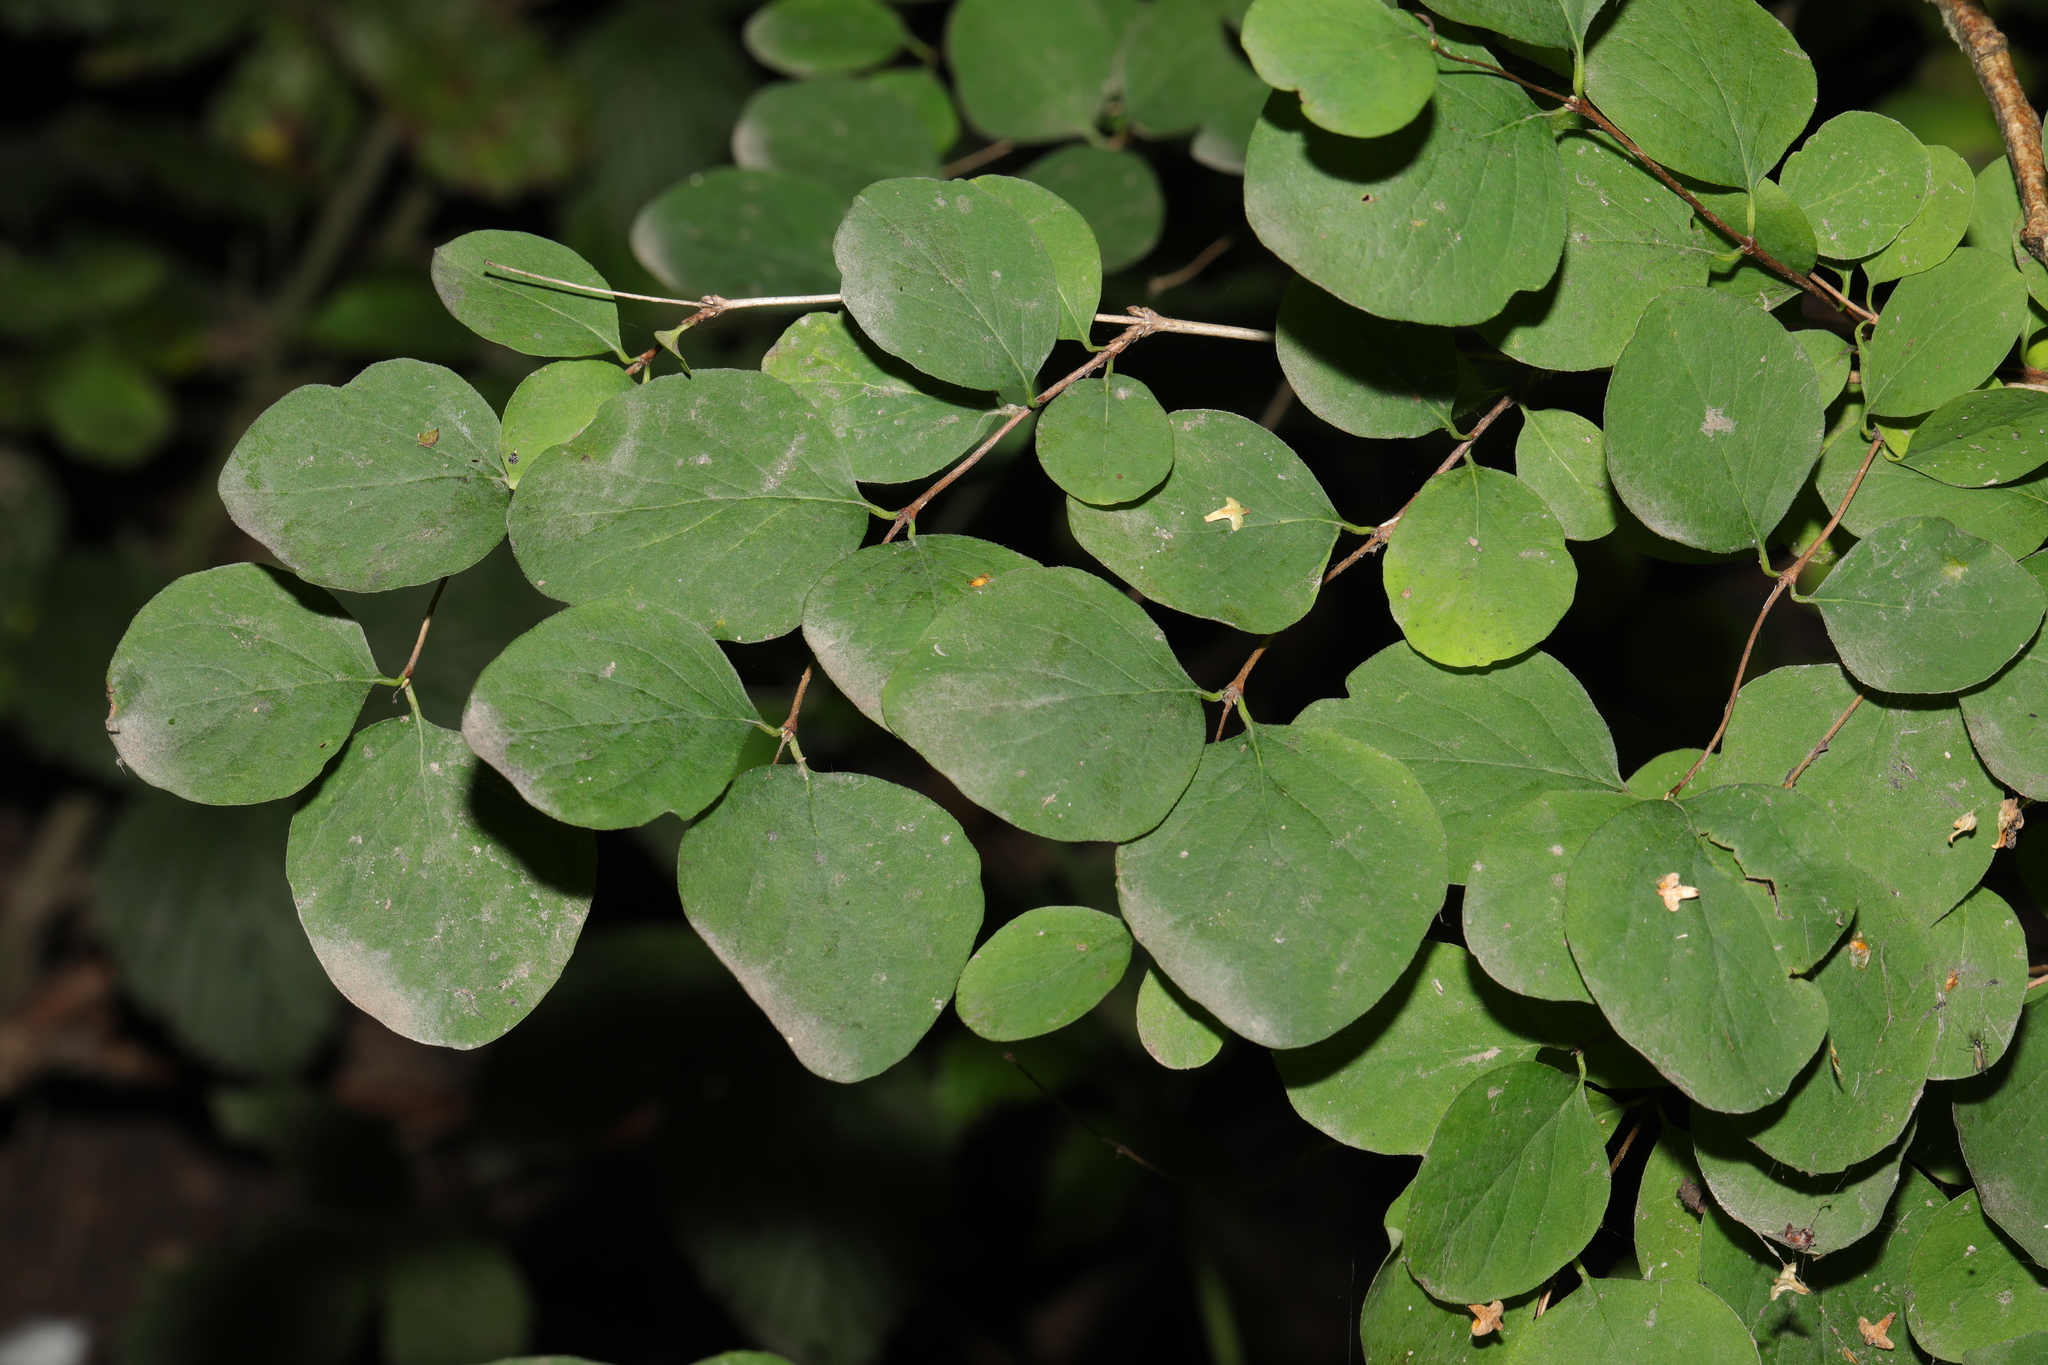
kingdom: Plantae
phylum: Tracheophyta
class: Magnoliopsida
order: Dipsacales
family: Caprifoliaceae
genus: Symphoricarpos
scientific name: Symphoricarpos albus
